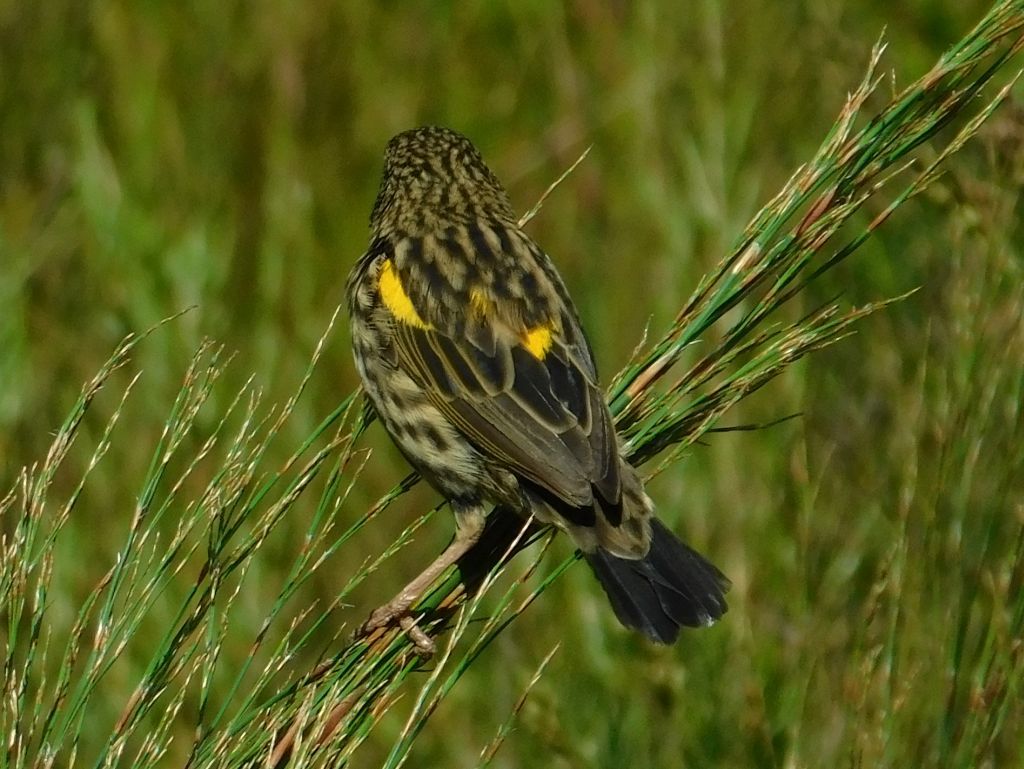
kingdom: Animalia
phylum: Chordata
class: Aves
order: Passeriformes
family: Ploceidae
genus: Euplectes
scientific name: Euplectes capensis
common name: Yellow bishop
